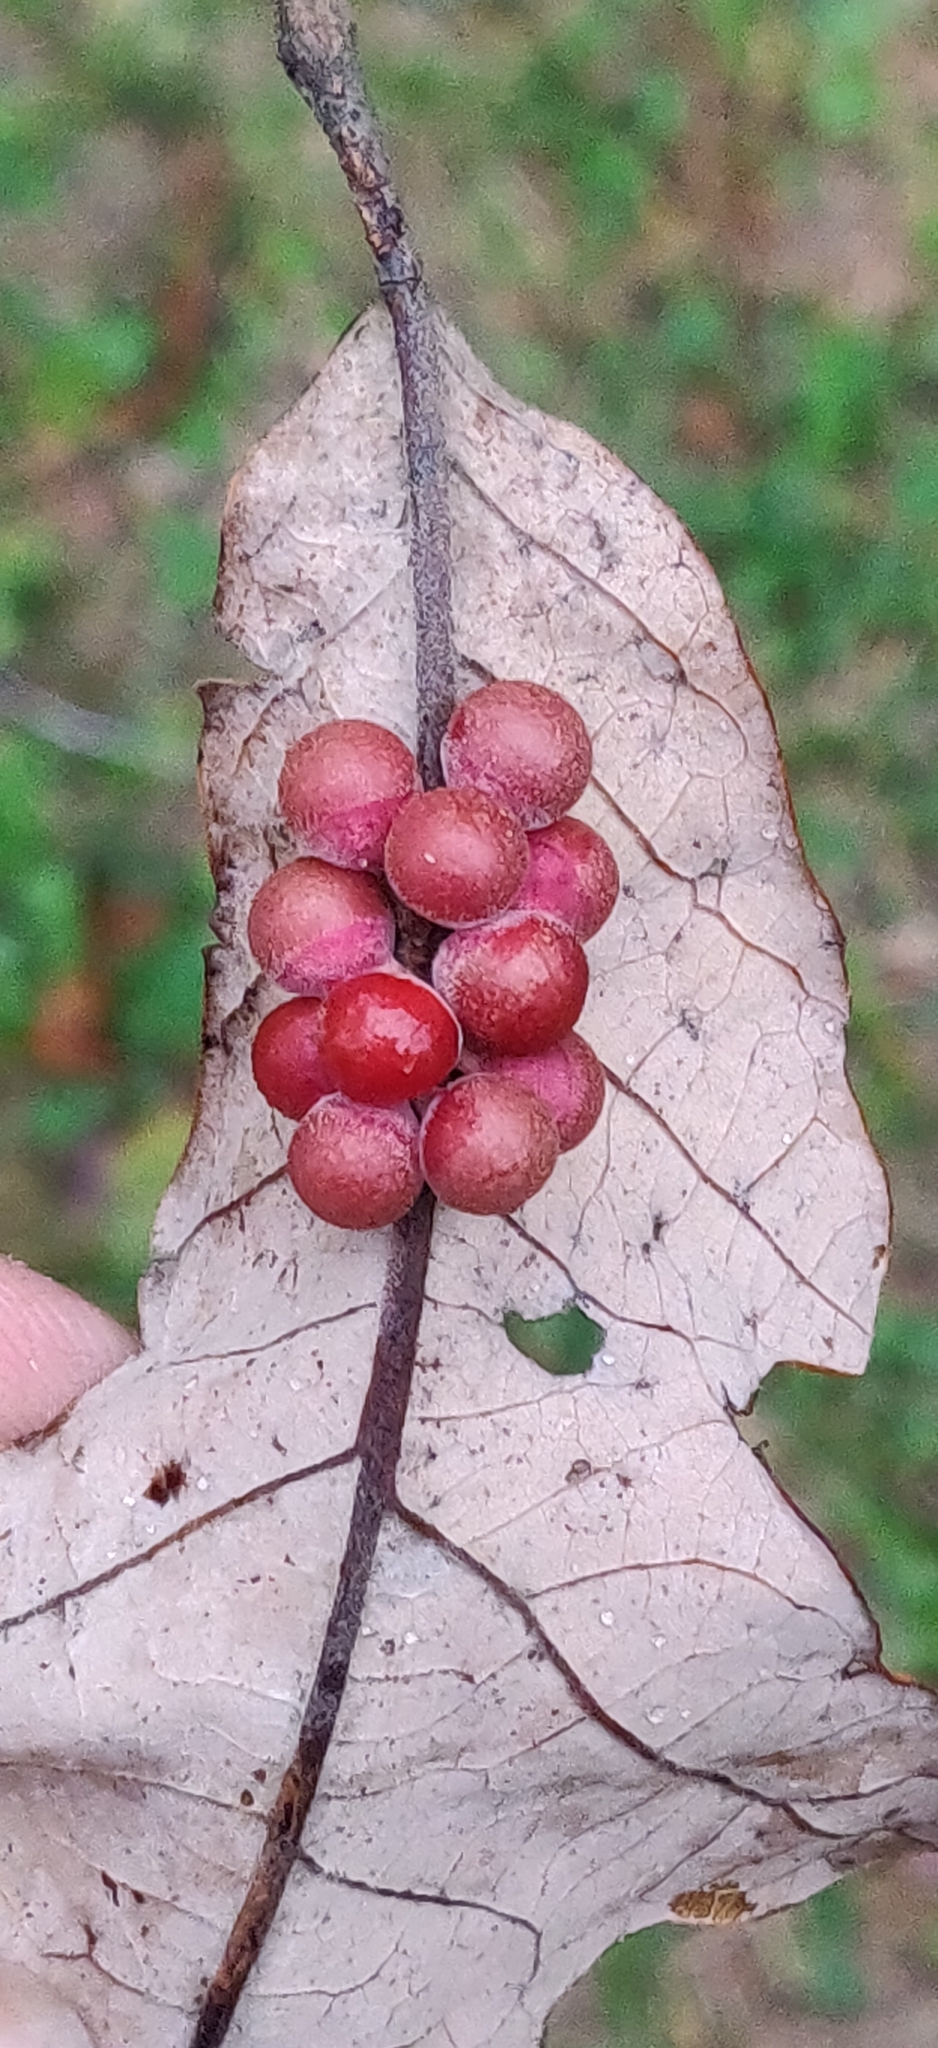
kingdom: Animalia
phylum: Arthropoda
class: Insecta
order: Hymenoptera
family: Cynipidae
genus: Andricus
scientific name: Andricus
